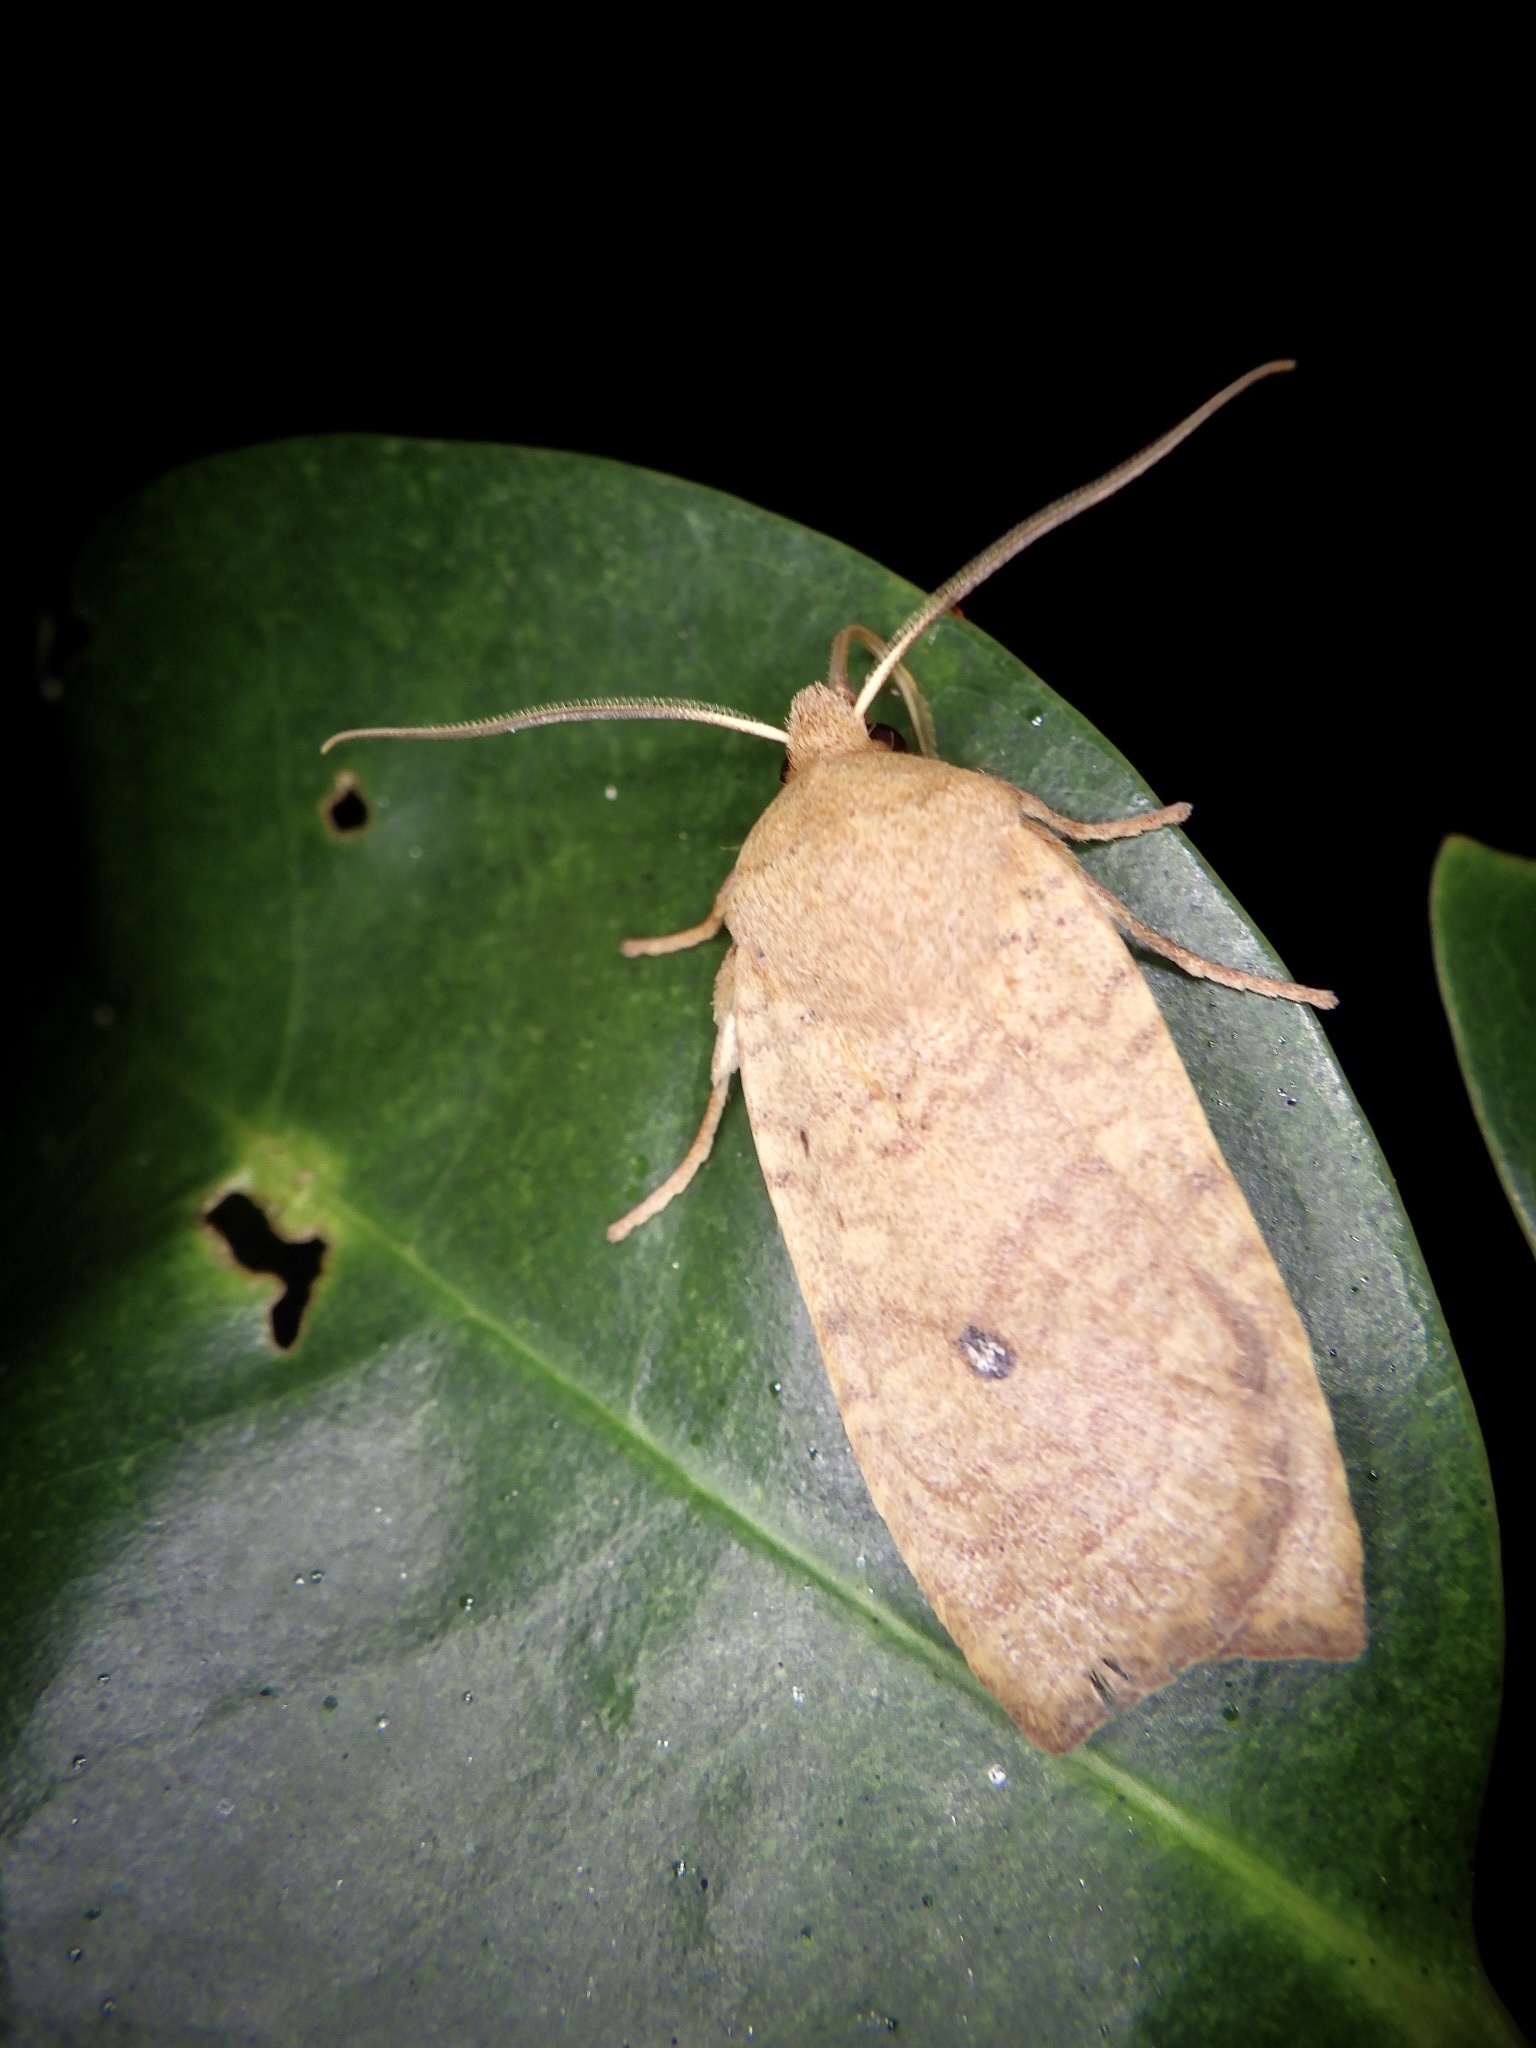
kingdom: Animalia
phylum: Arthropoda
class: Insecta
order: Lepidoptera
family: Noctuidae
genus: Conistra
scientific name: Conistra albipuncta
